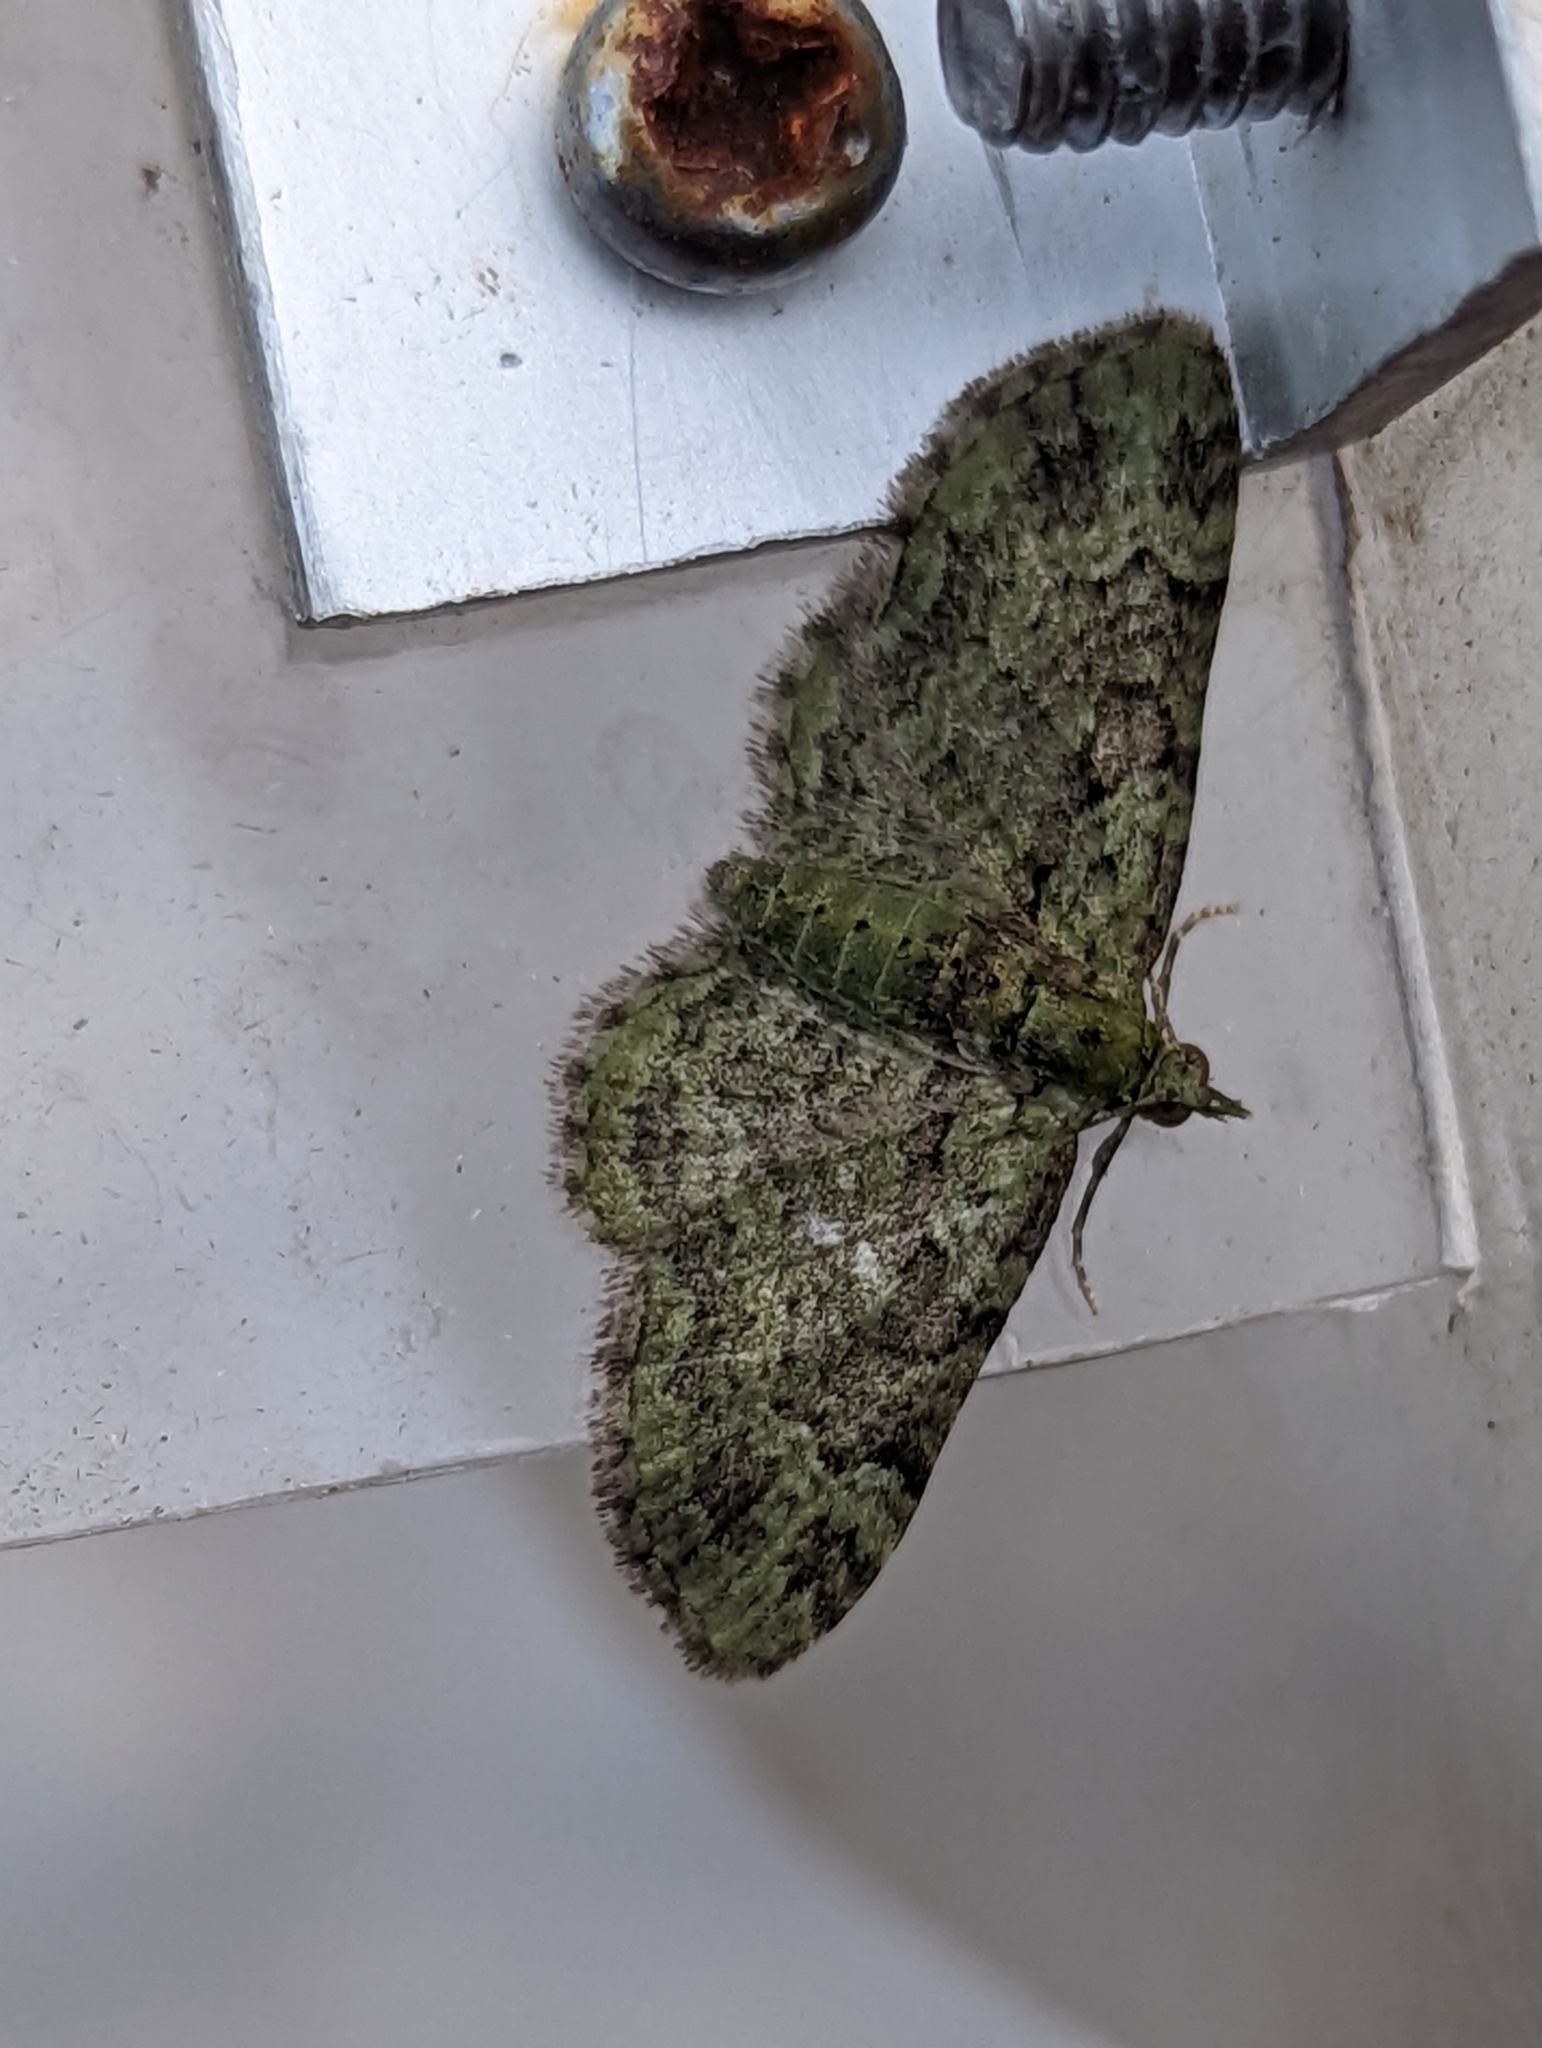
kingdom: Animalia
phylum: Arthropoda
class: Insecta
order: Lepidoptera
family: Geometridae
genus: Pasiphila
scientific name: Pasiphila rectangulata
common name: Green pug
